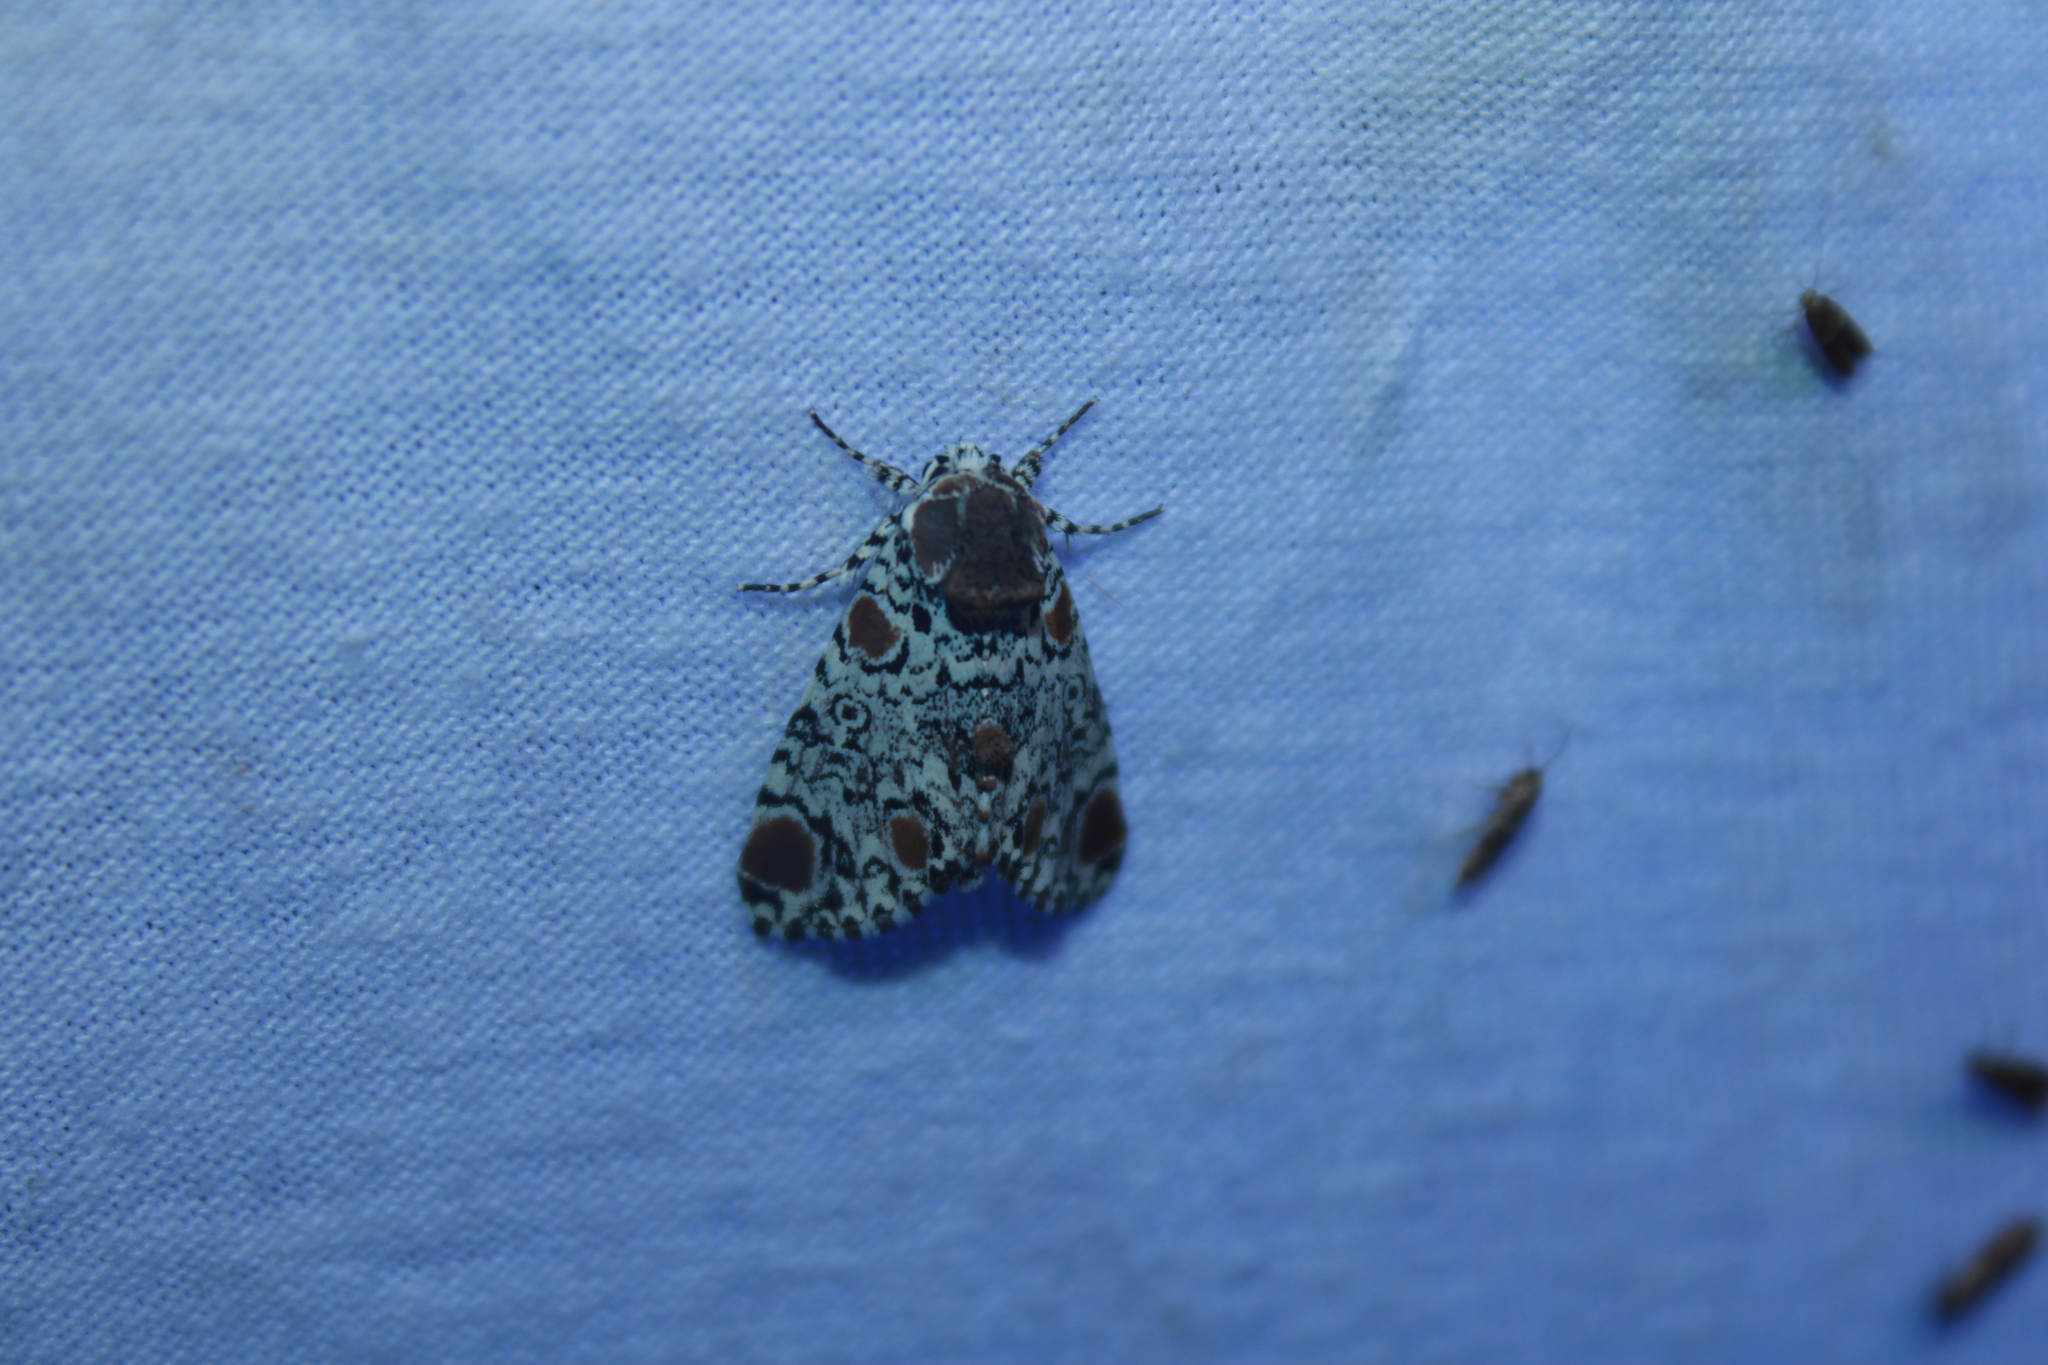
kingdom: Animalia
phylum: Arthropoda
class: Insecta
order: Lepidoptera
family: Noctuidae
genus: Harrisimemna
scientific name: Harrisimemna trisignata
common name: Harris threespot
